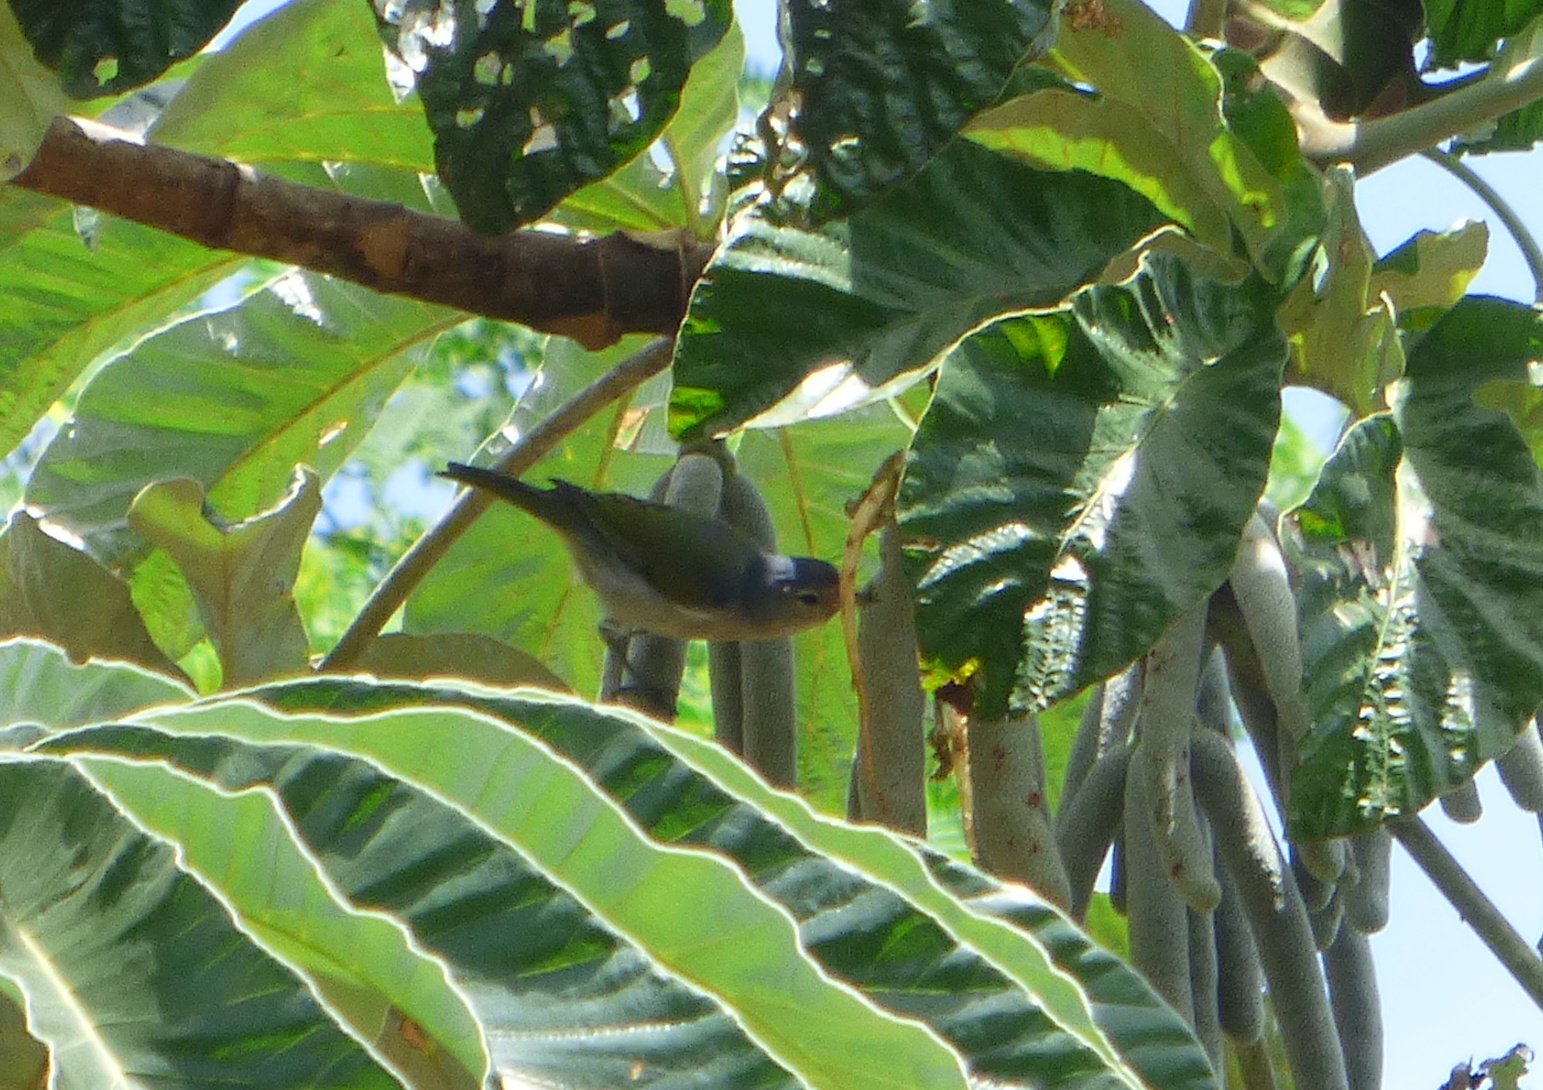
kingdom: Animalia
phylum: Chordata
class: Aves
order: Passeriformes
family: Thraupidae
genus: Conirostrum
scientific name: Conirostrum speciosum
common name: Chestnut-vented conebill
